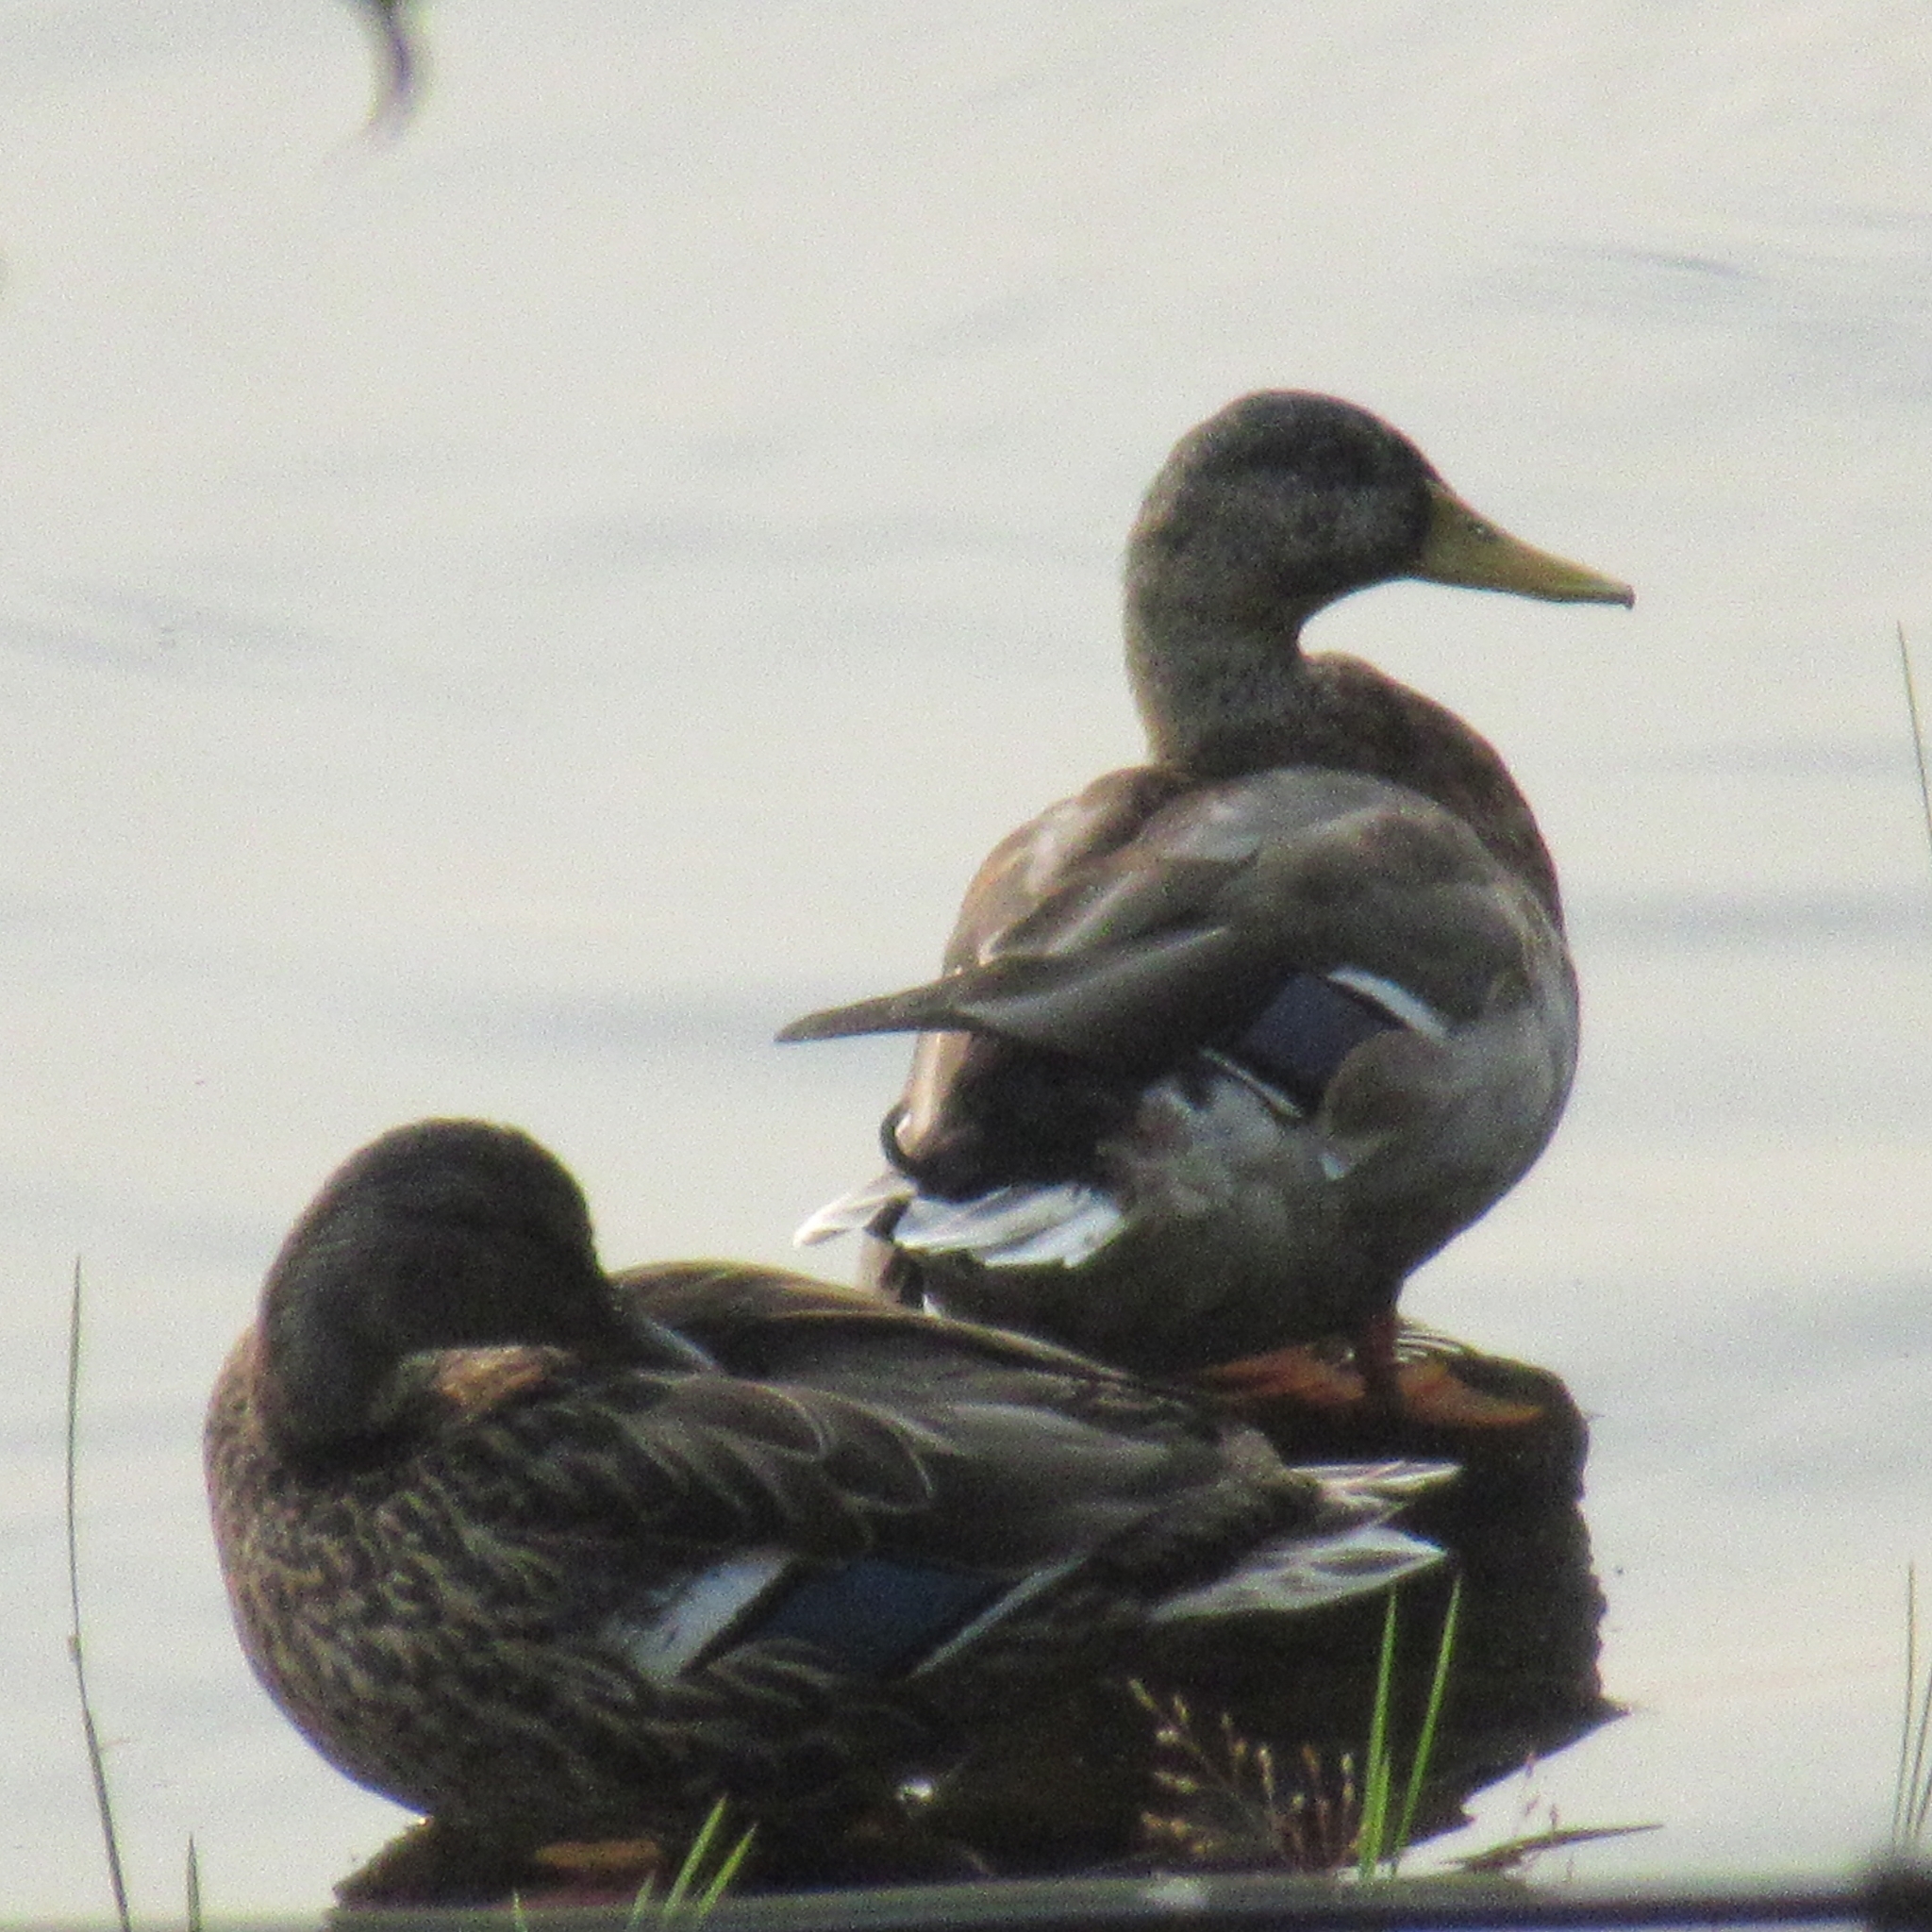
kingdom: Animalia
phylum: Chordata
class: Aves
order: Anseriformes
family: Anatidae
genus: Anas
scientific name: Anas platyrhynchos
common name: Mallard
